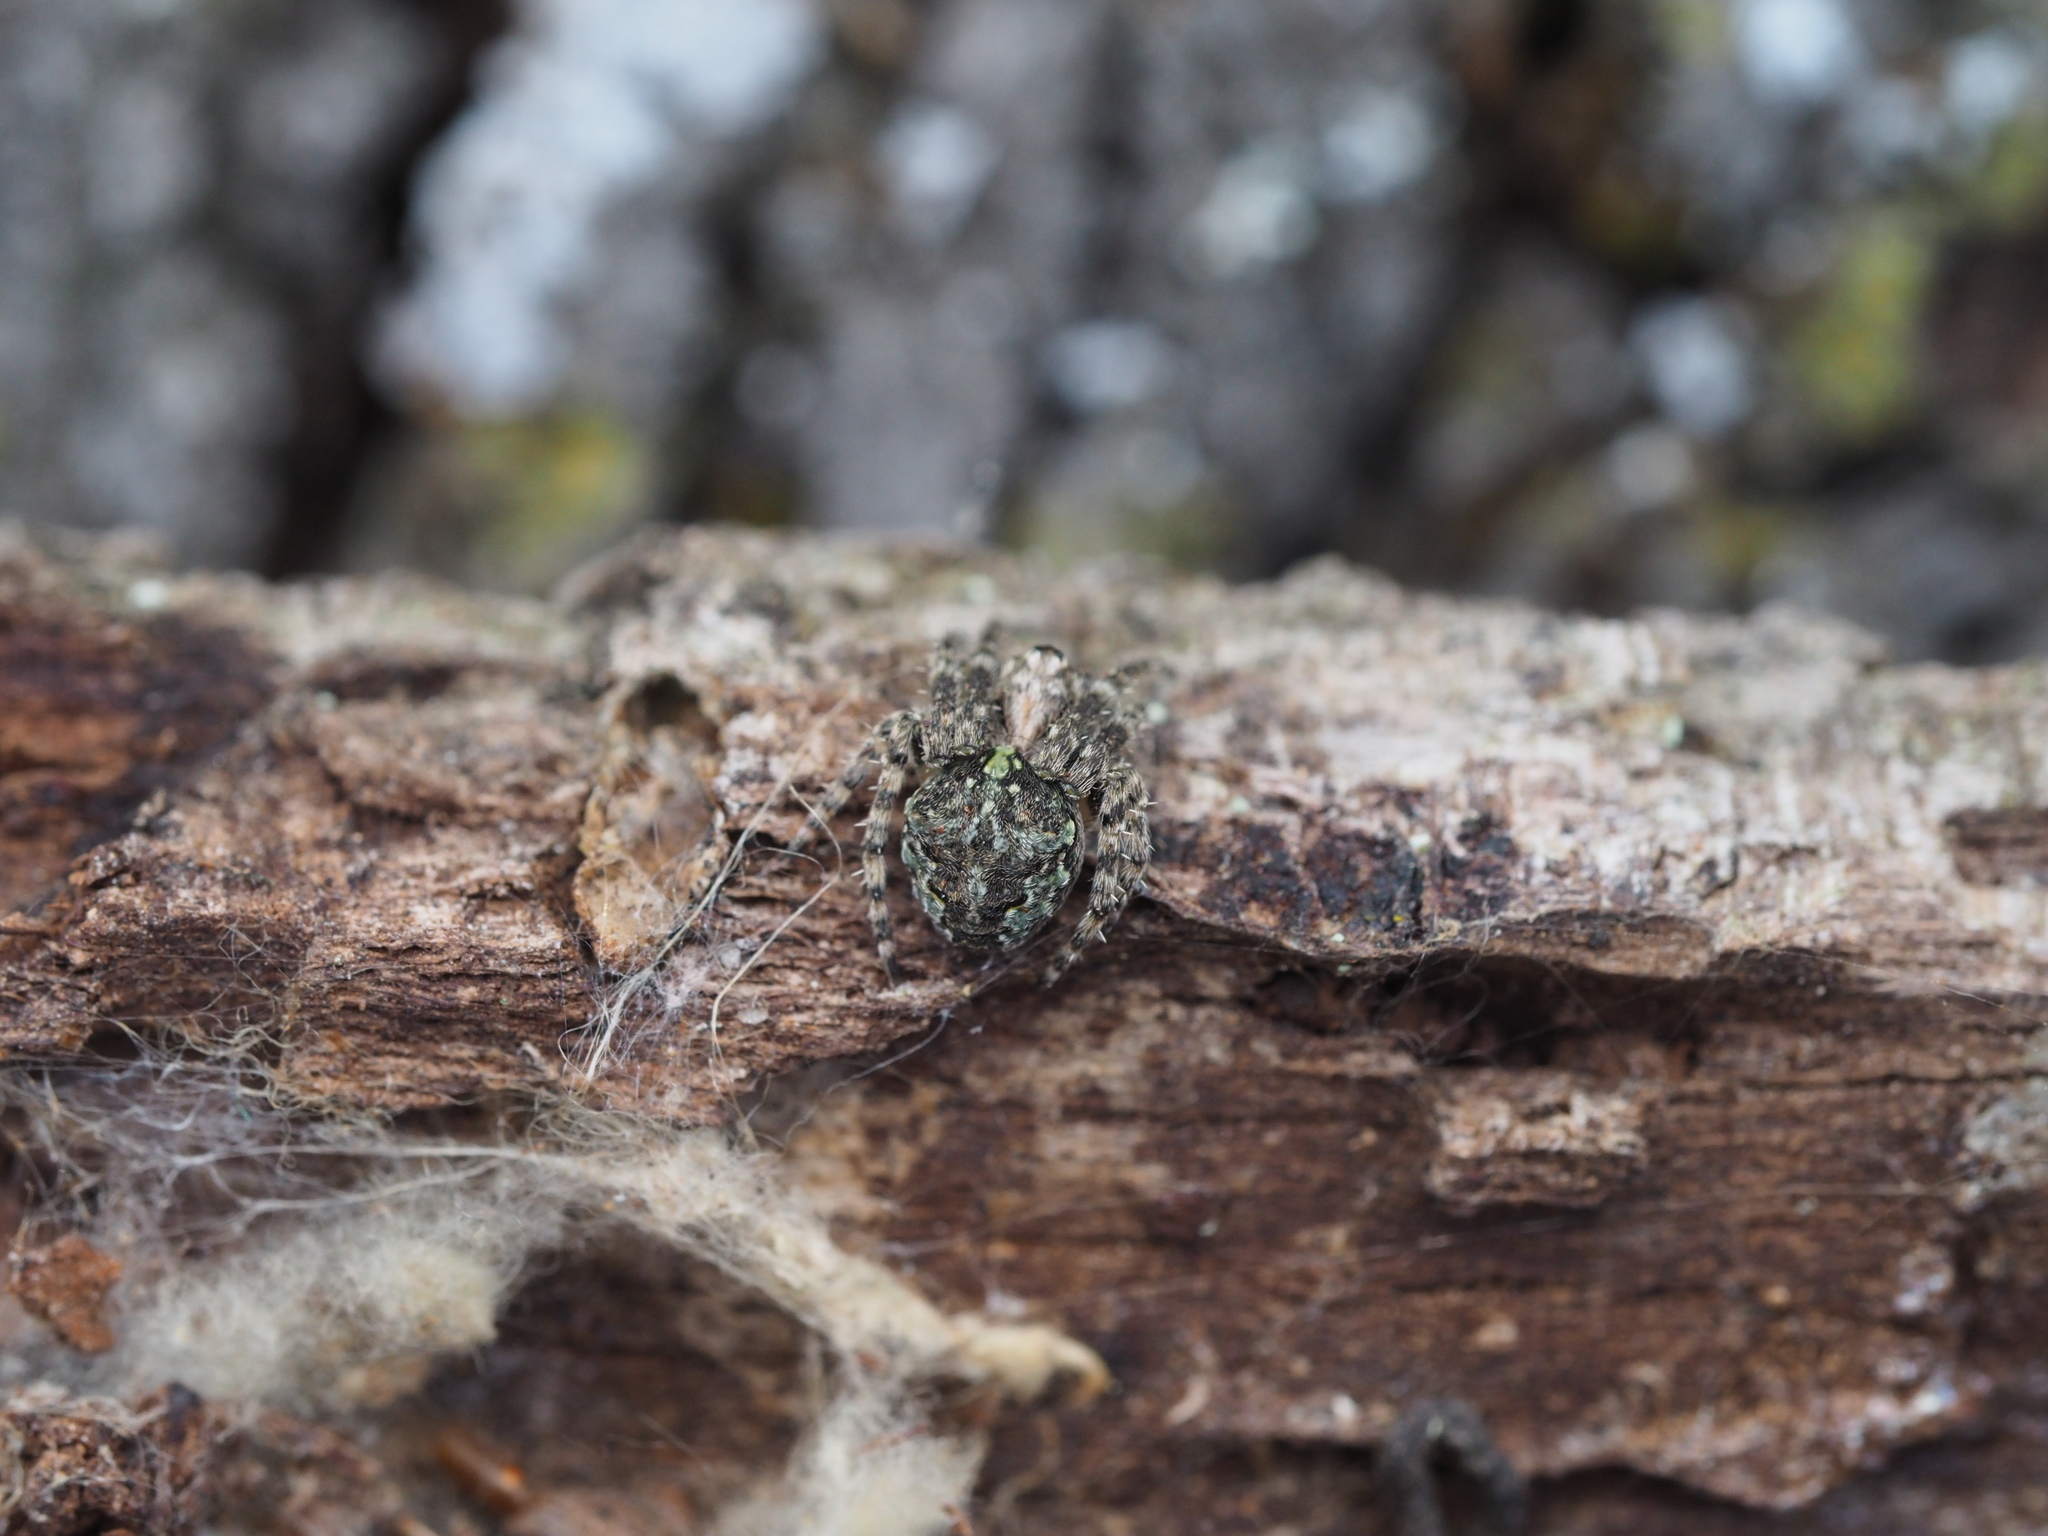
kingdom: Animalia
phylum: Arthropoda
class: Arachnida
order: Araneae
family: Araneidae
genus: Gibbaranea
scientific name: Gibbaranea gibbosa
